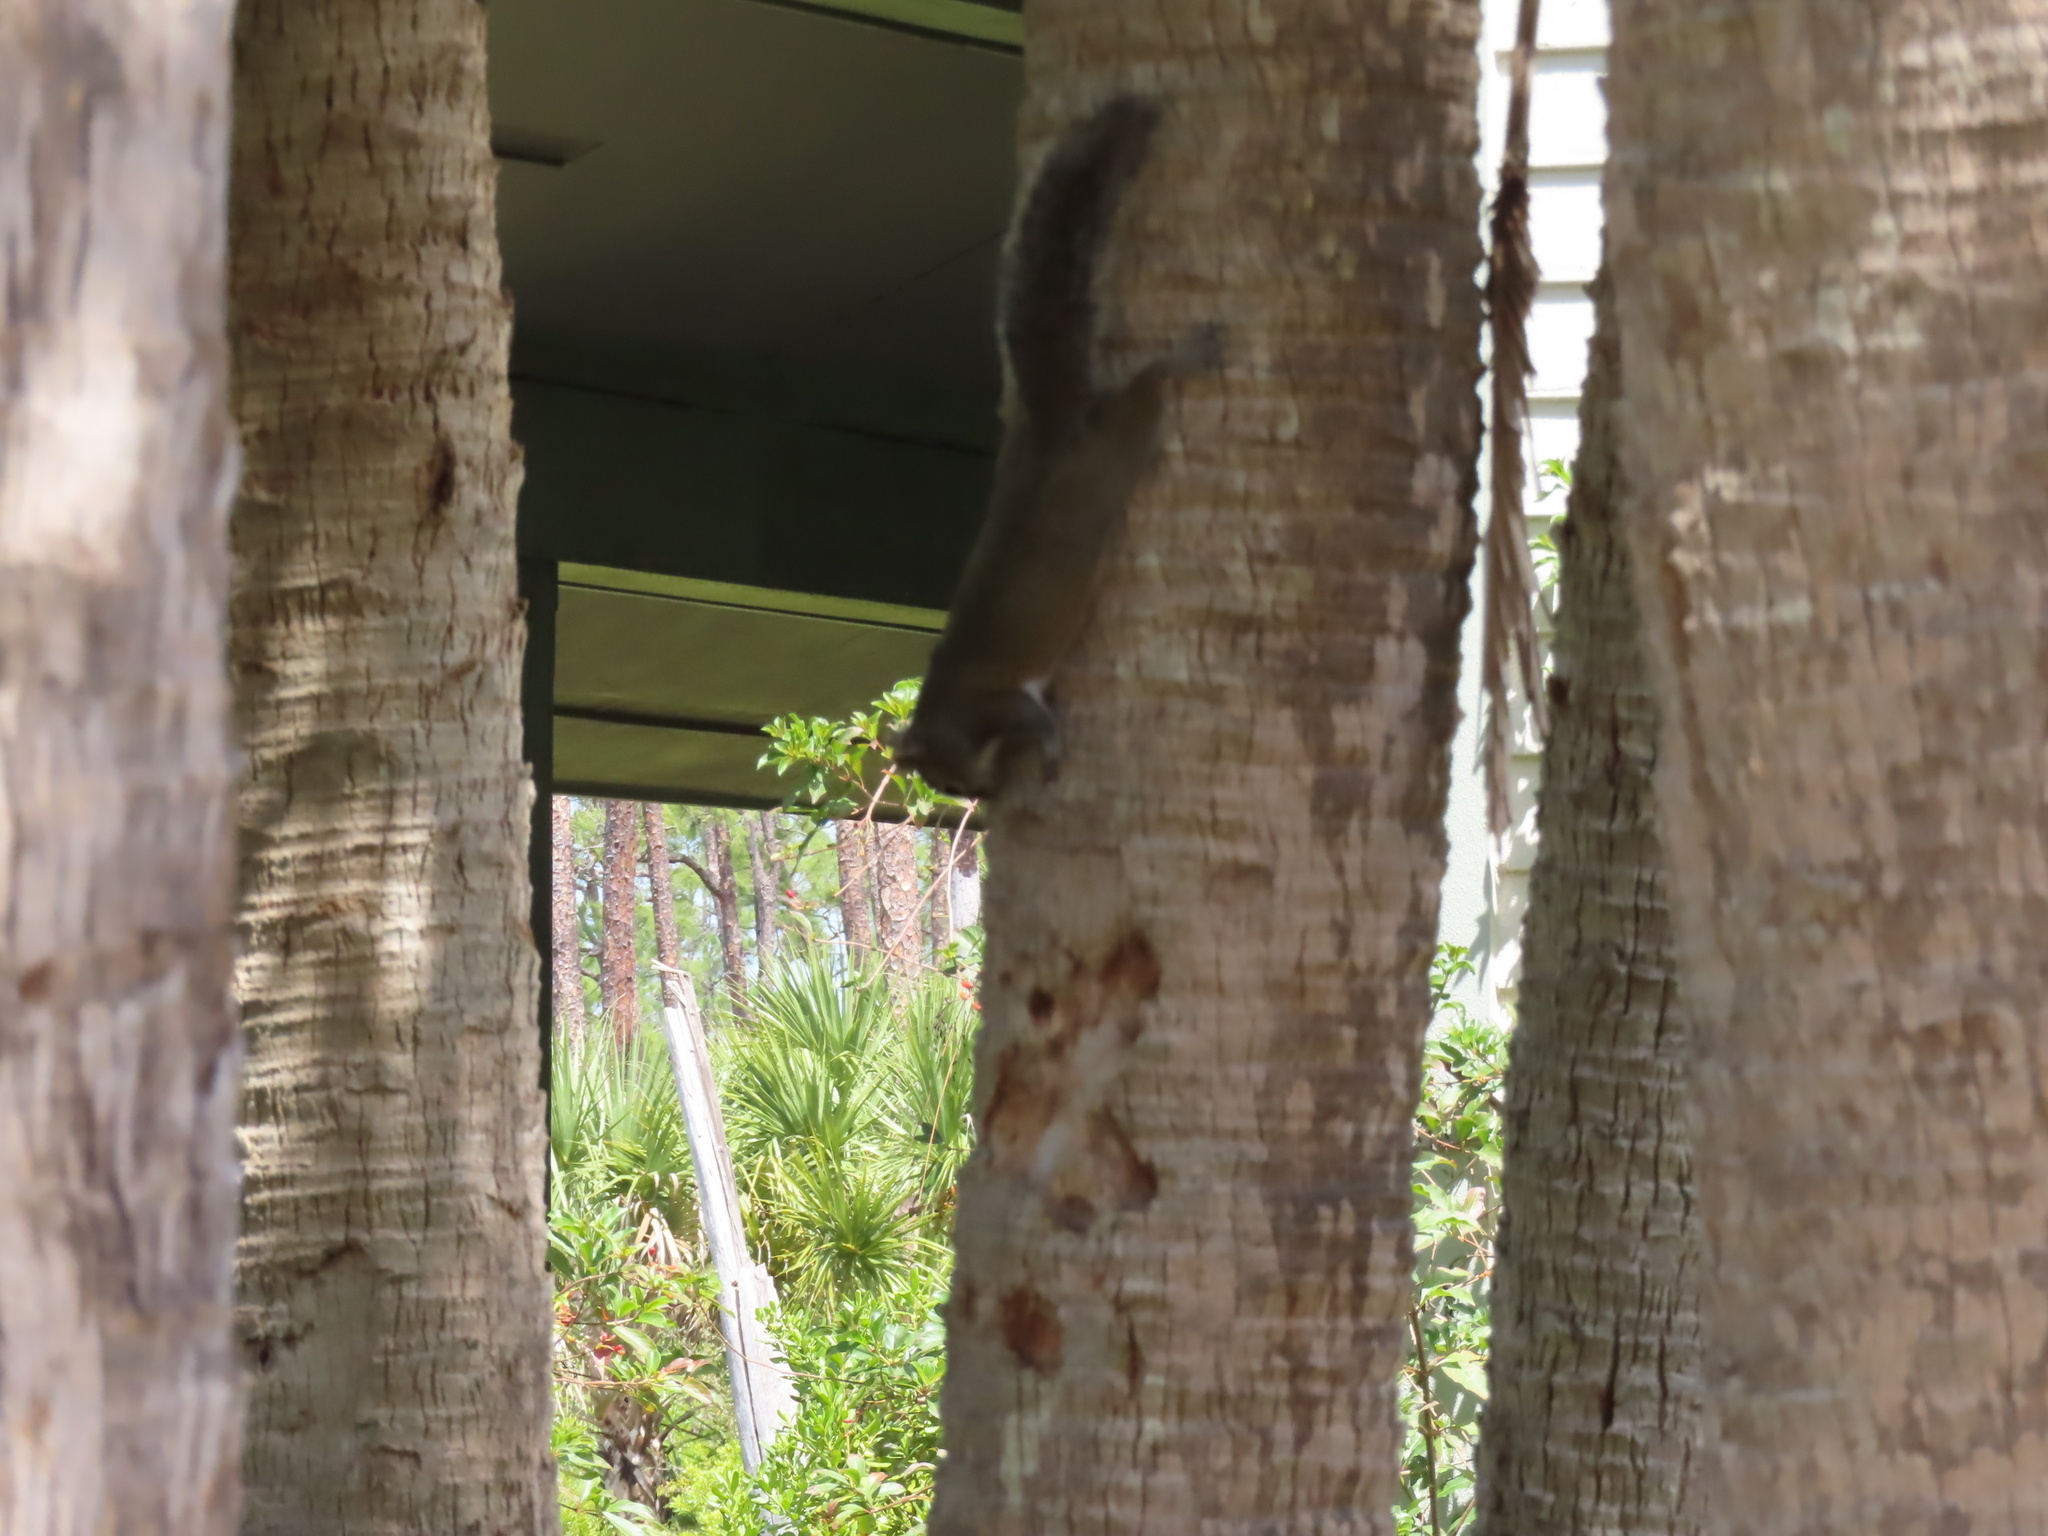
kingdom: Animalia
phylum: Chordata
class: Mammalia
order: Rodentia
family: Sciuridae
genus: Sciurus
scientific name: Sciurus carolinensis
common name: Eastern gray squirrel
